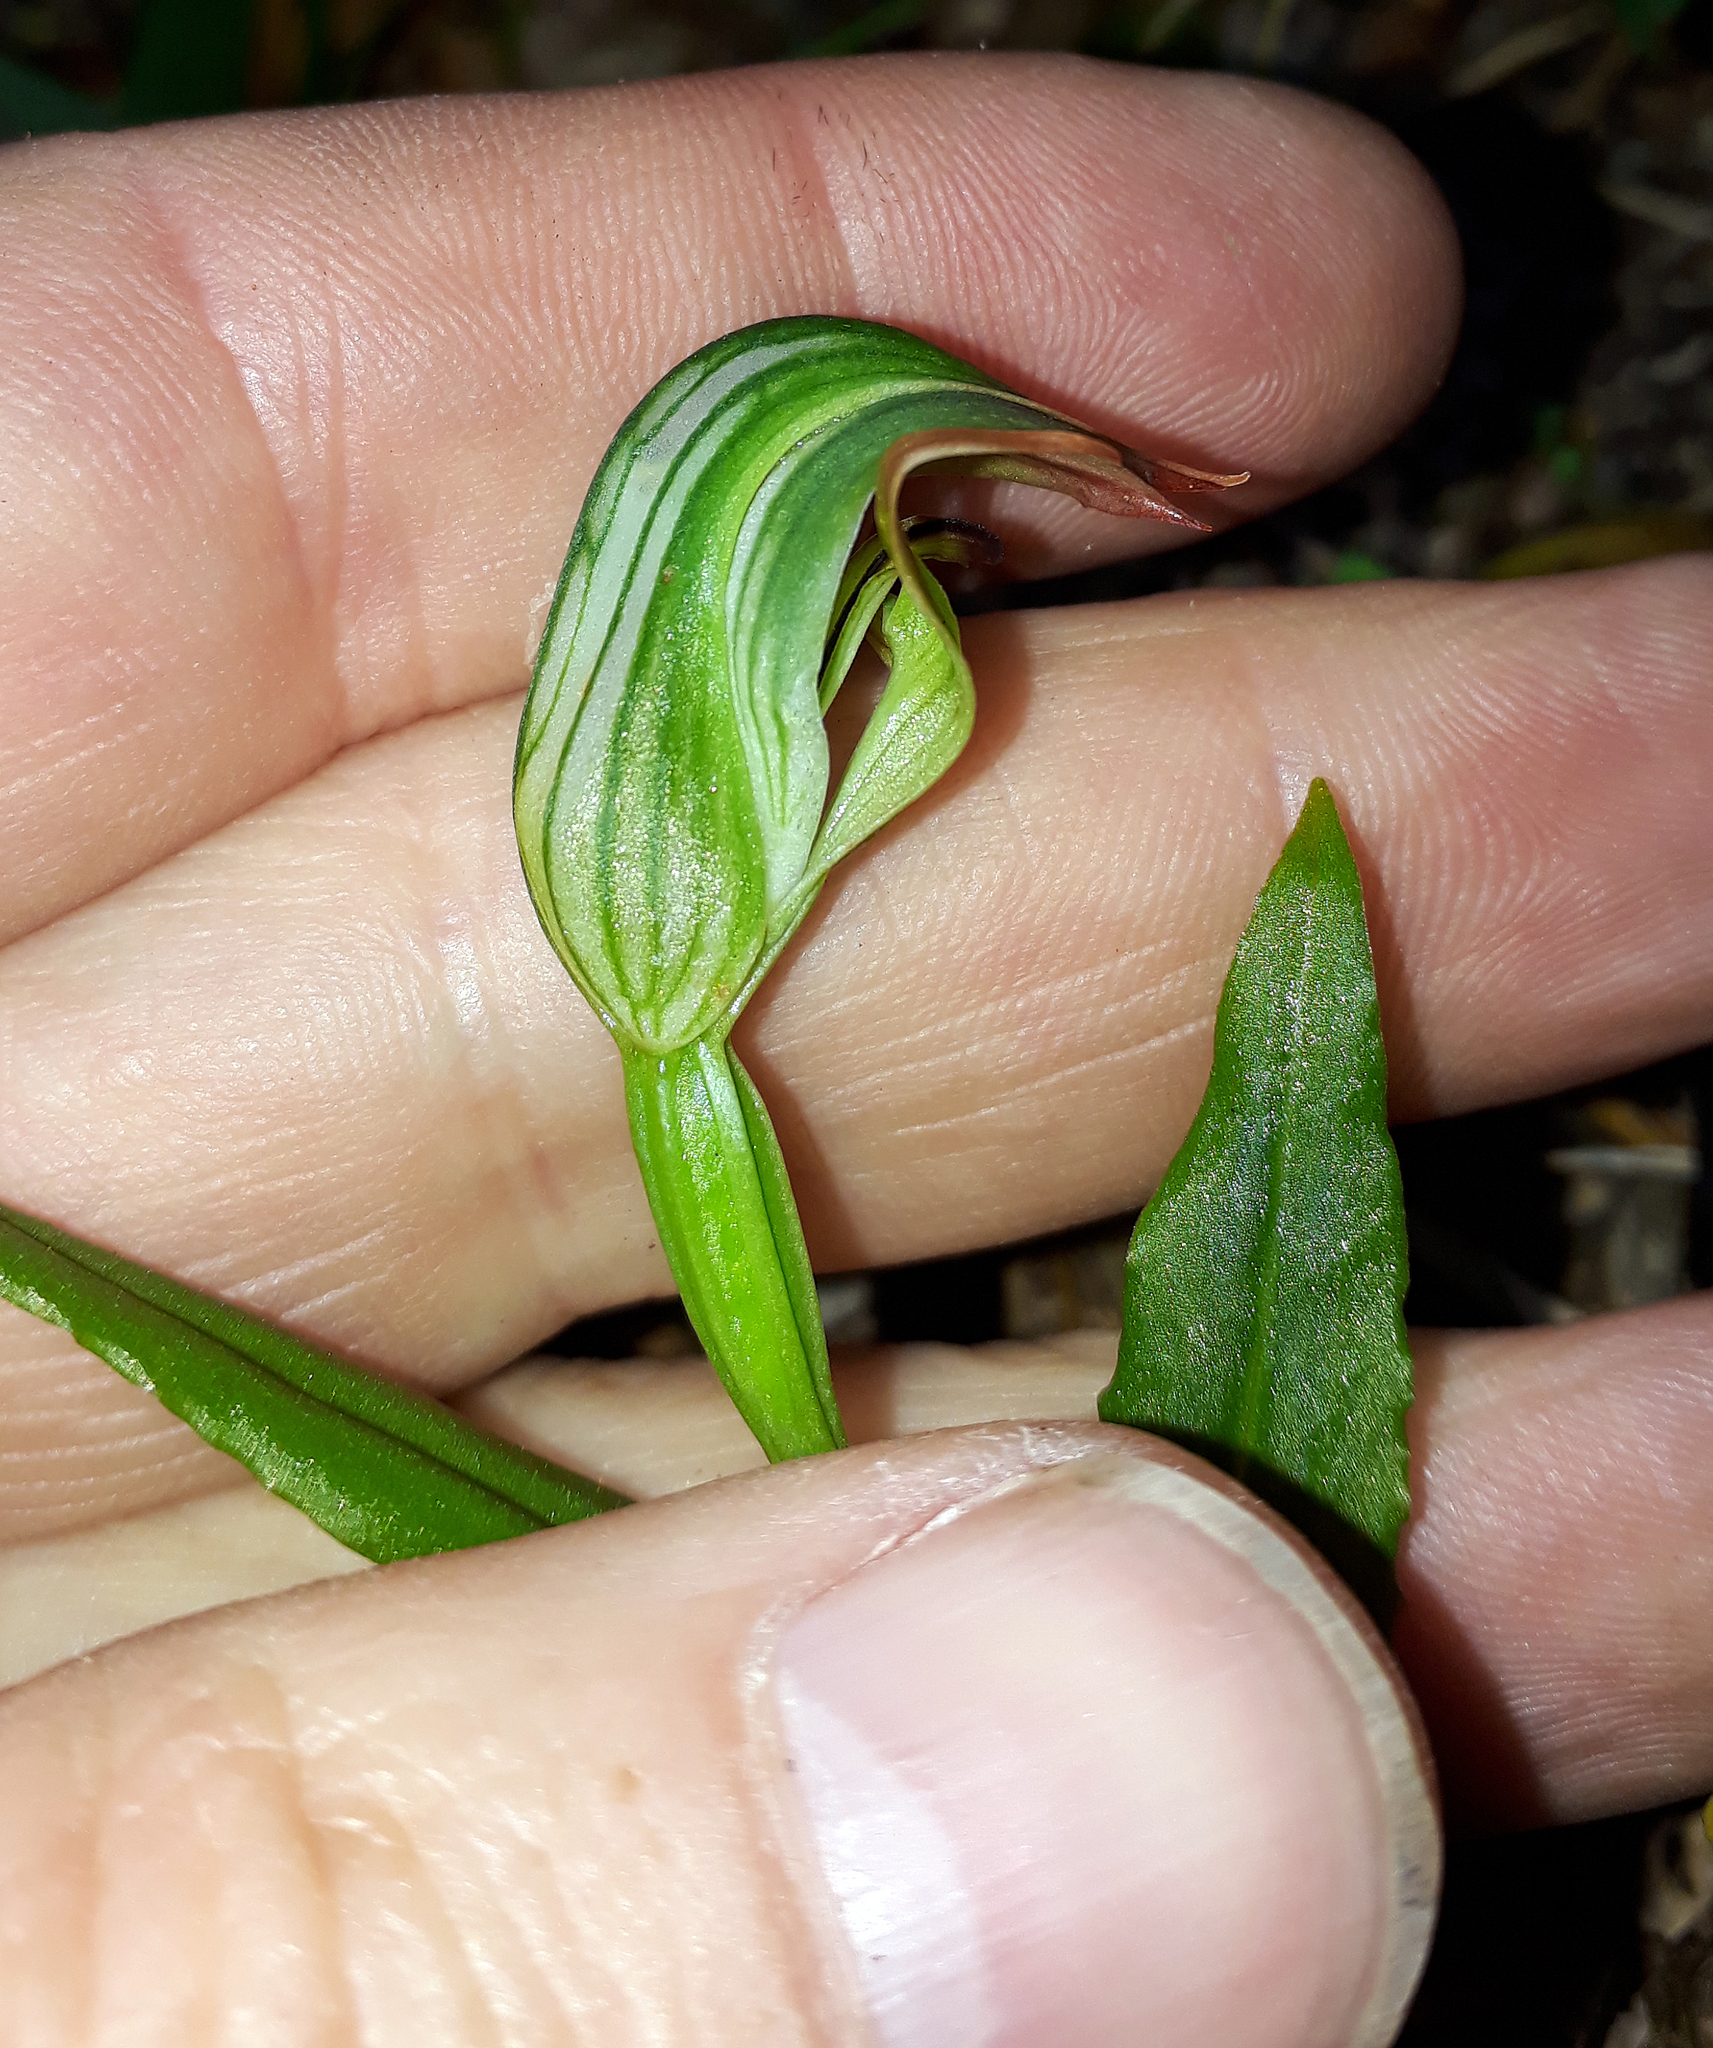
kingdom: Plantae
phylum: Tracheophyta
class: Liliopsida
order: Asparagales
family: Orchidaceae
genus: Pterostylis
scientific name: Pterostylis silvicultrix
